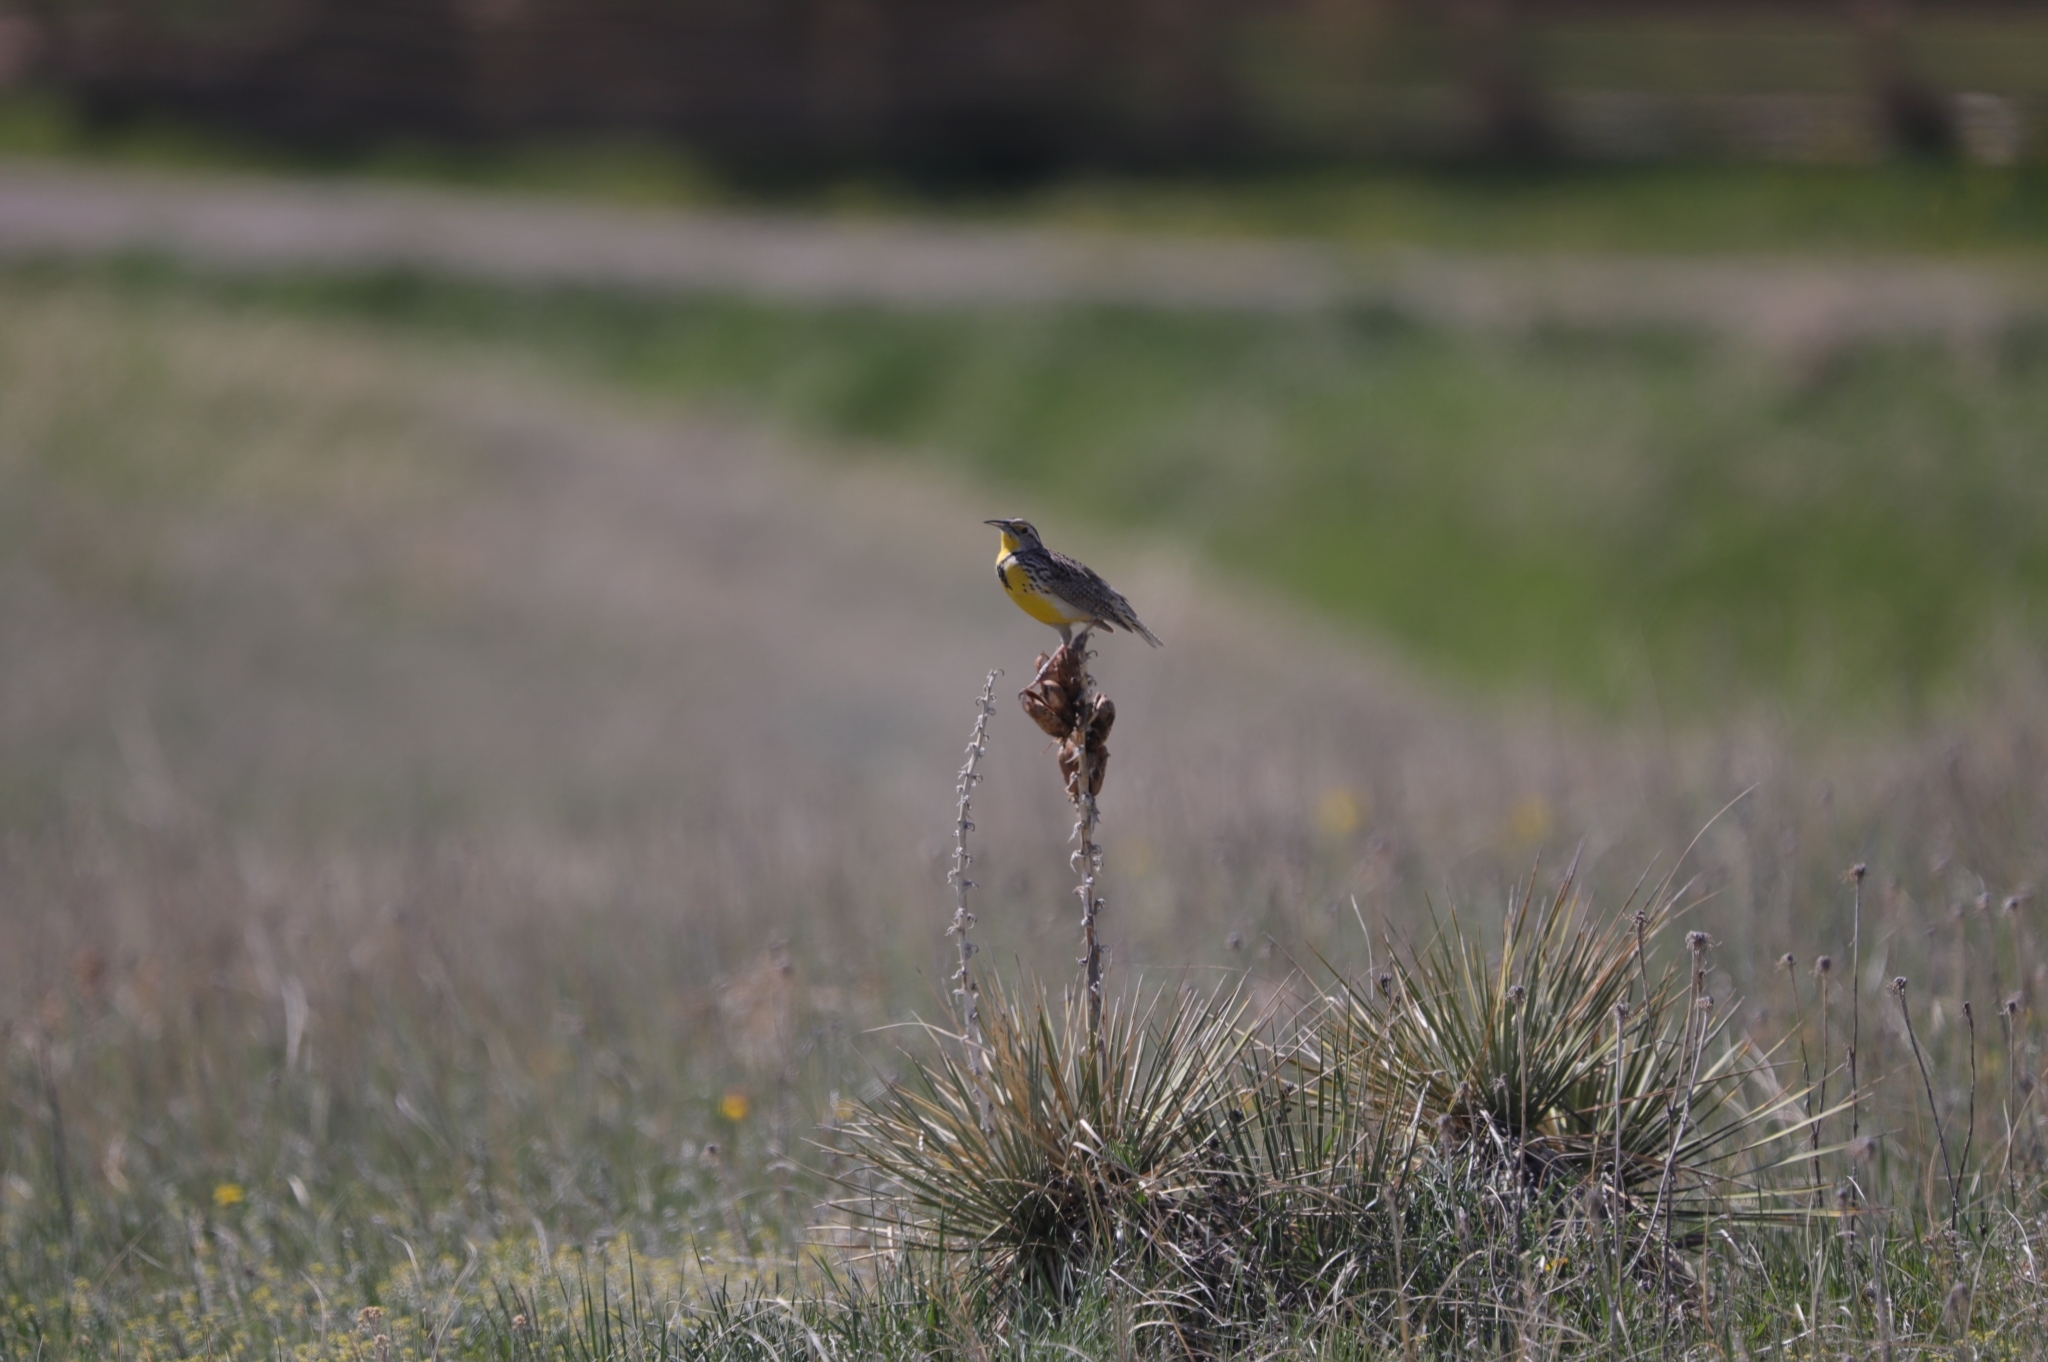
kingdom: Animalia
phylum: Chordata
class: Aves
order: Passeriformes
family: Icteridae
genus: Sturnella
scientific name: Sturnella neglecta
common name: Western meadowlark
